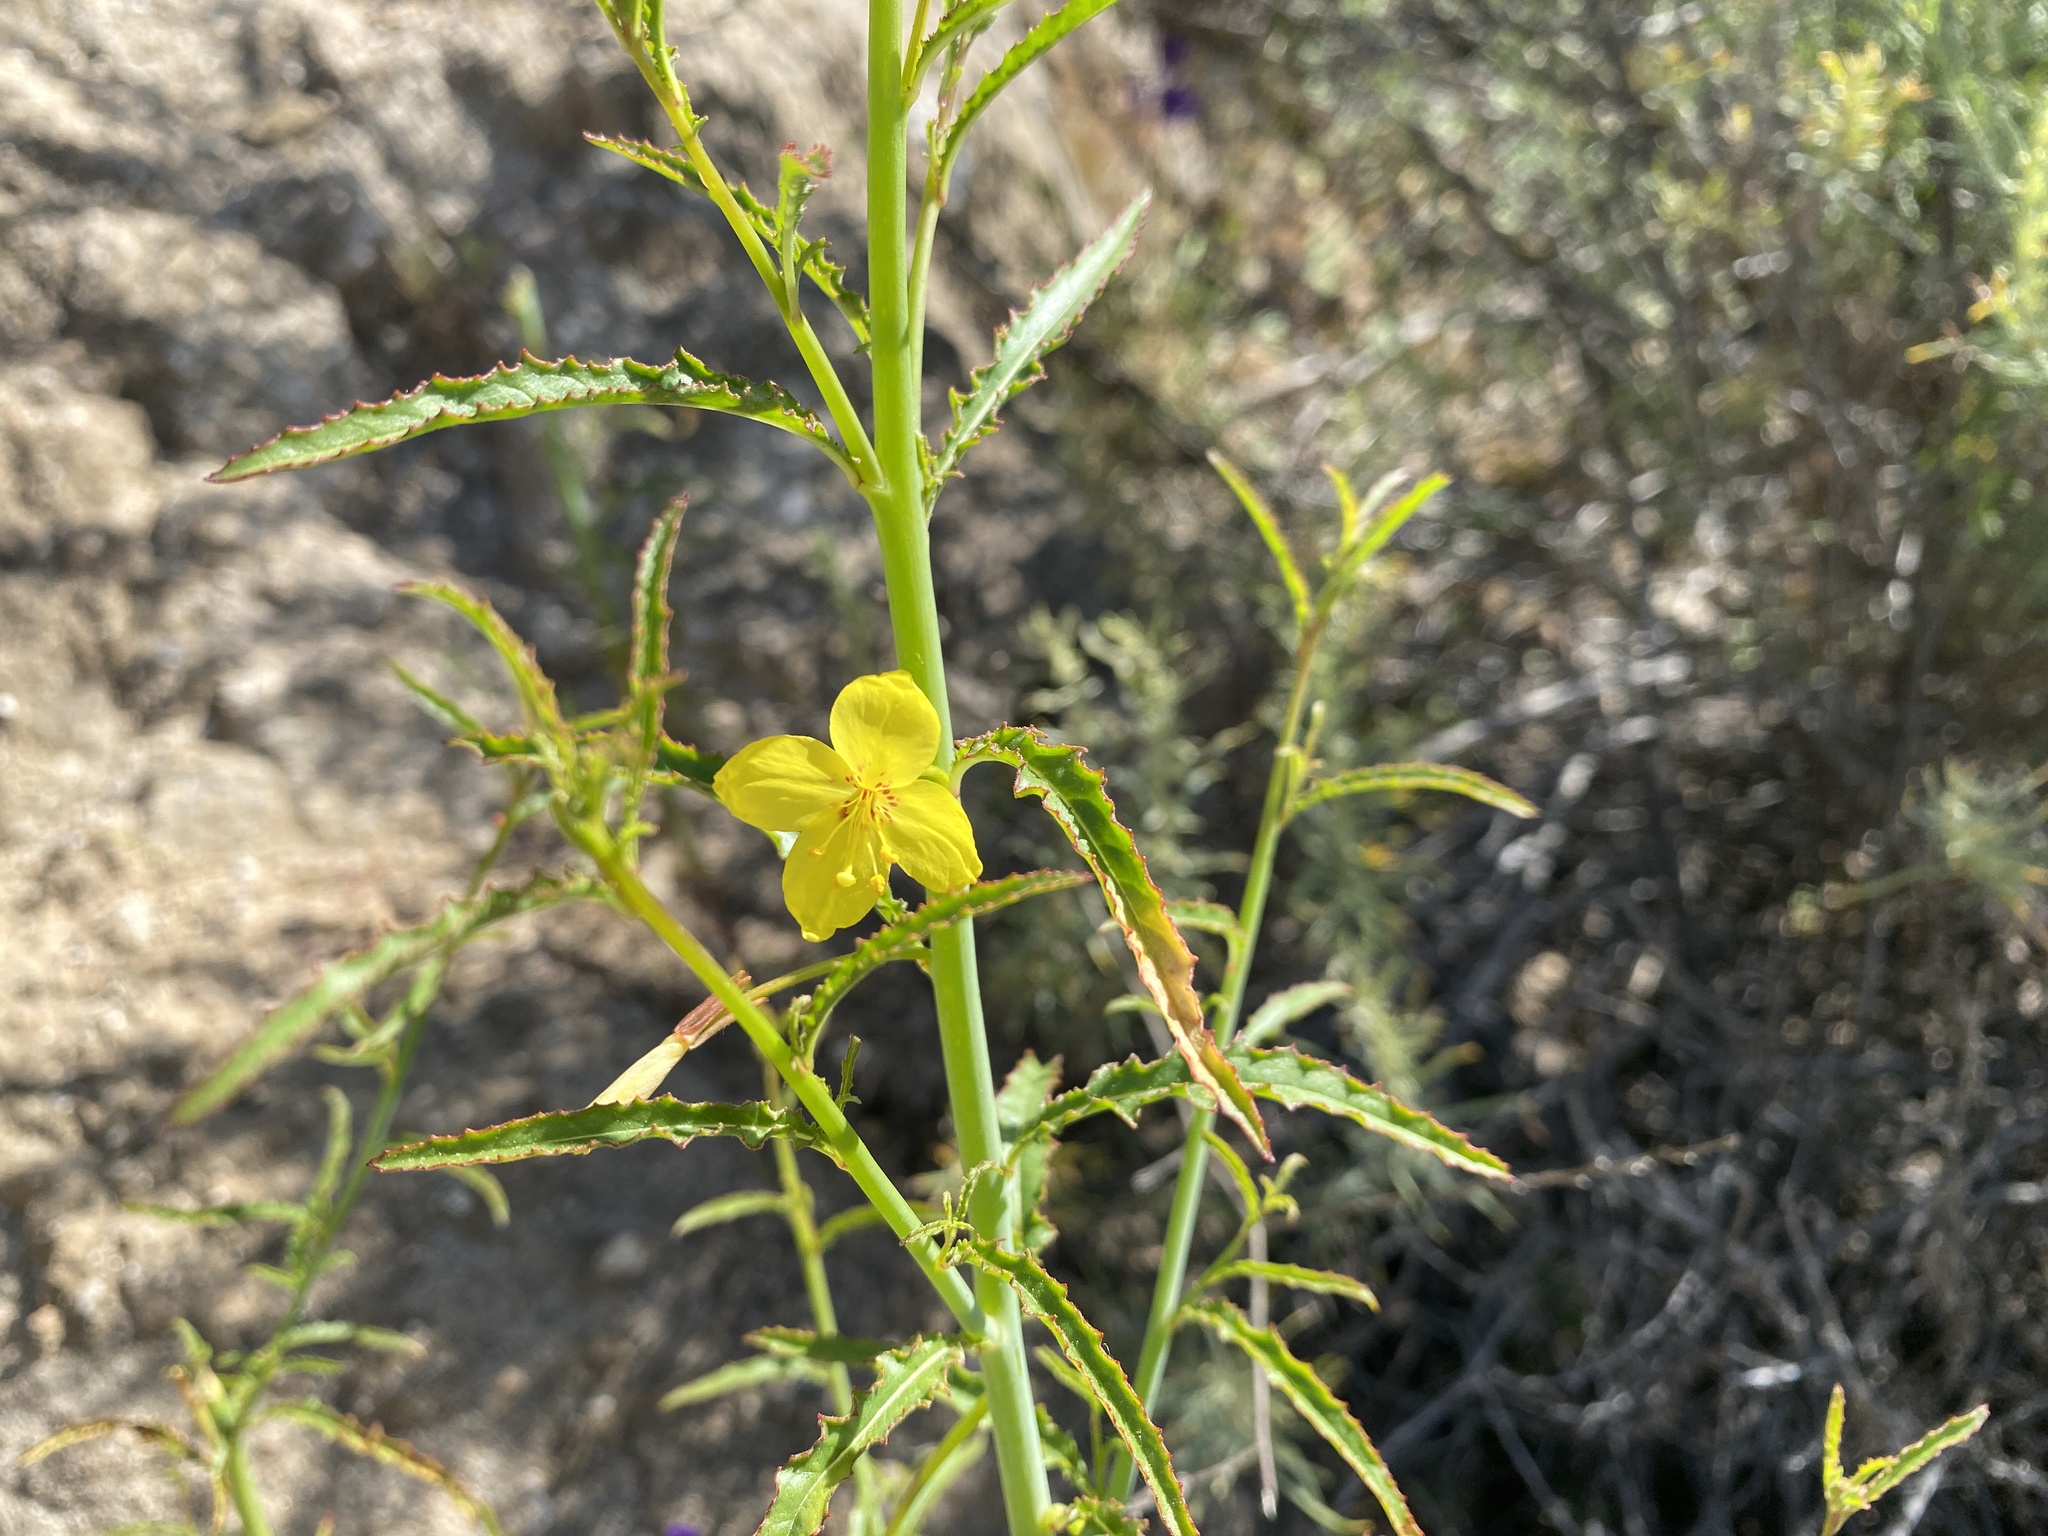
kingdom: Plantae
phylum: Tracheophyta
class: Magnoliopsida
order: Myrtales
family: Onagraceae
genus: Eulobus
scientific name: Eulobus californicus
